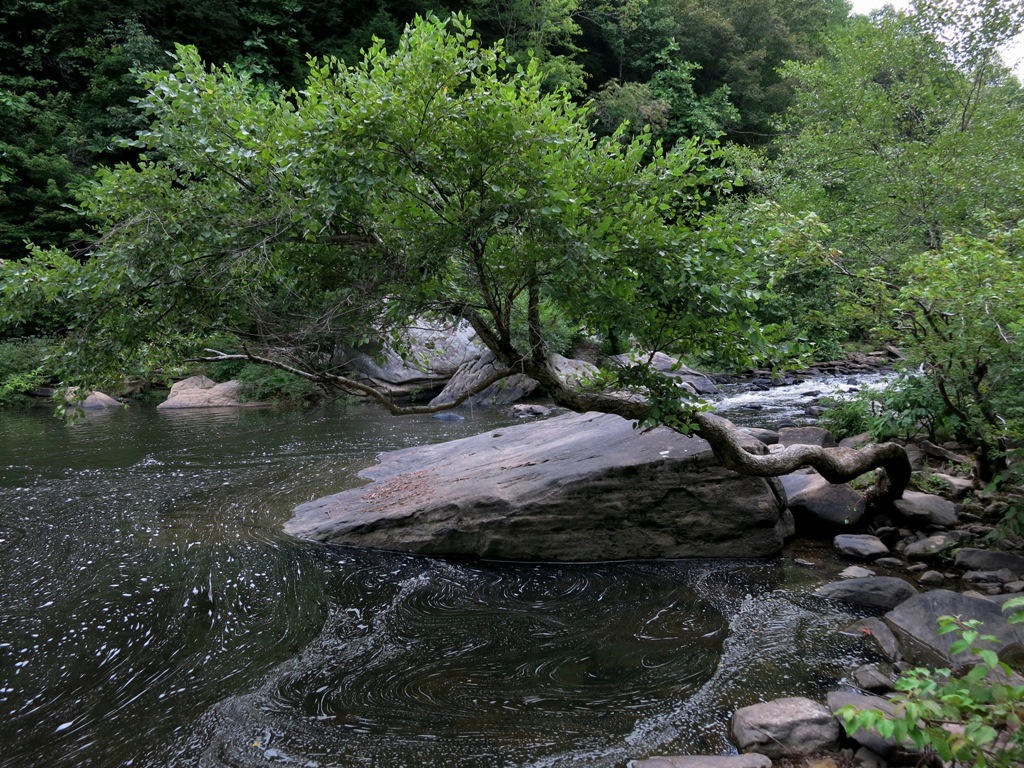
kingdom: Plantae
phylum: Tracheophyta
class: Magnoliopsida
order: Fagales
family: Betulaceae
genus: Betula
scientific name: Betula nigra
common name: Black birch
